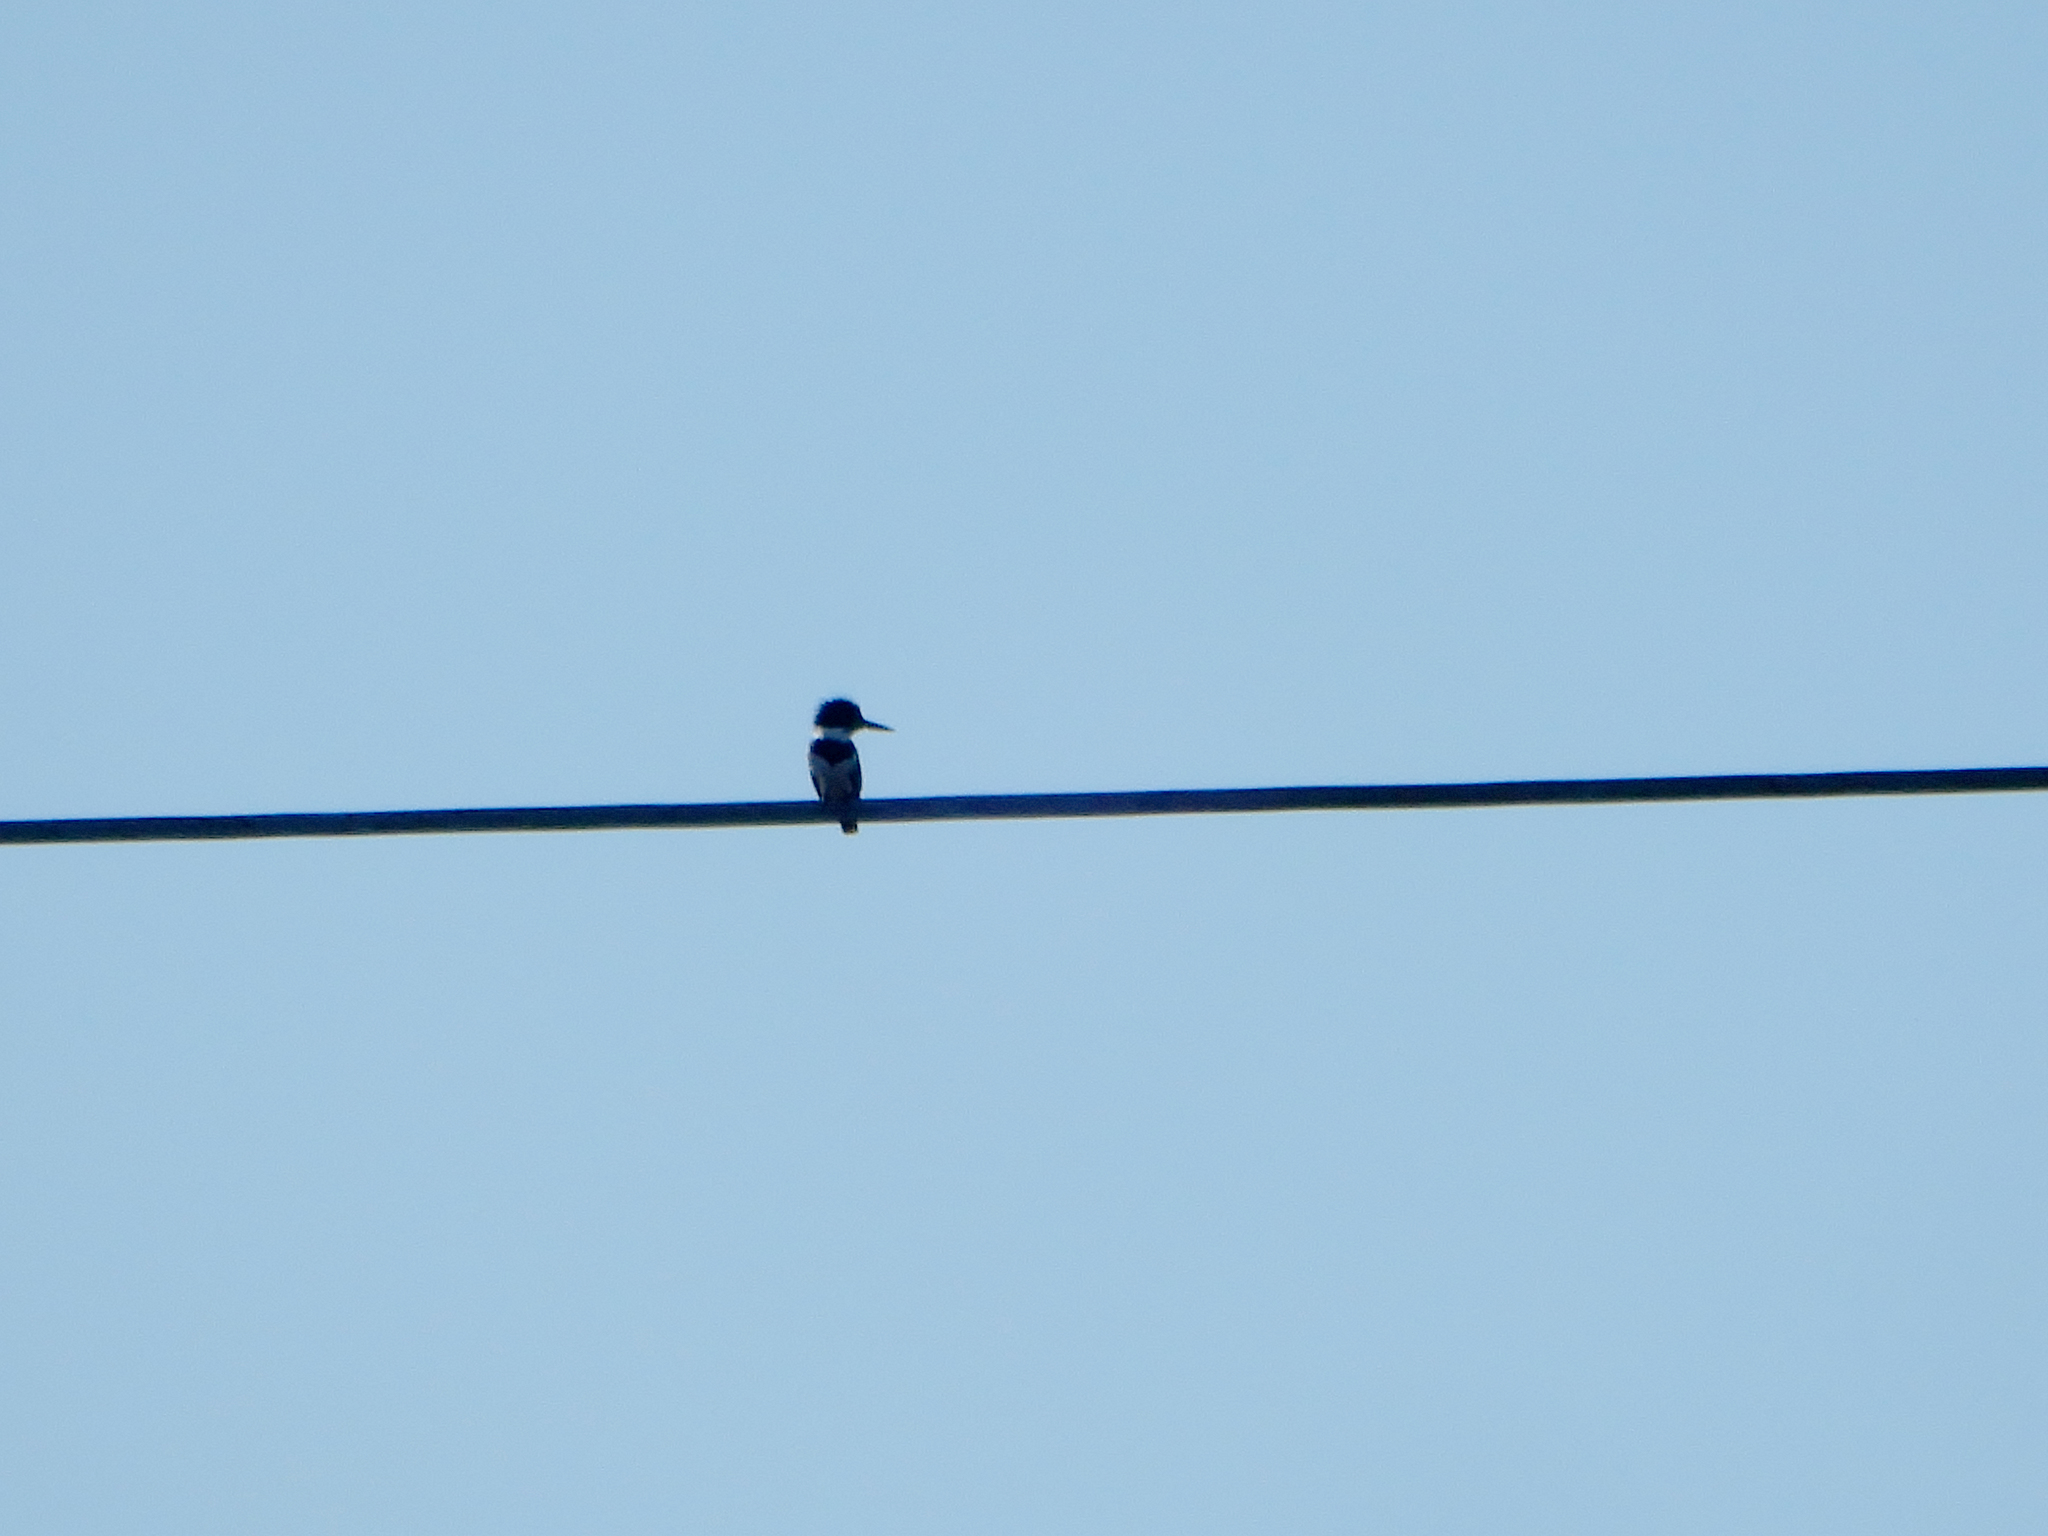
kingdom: Animalia
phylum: Chordata
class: Aves
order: Coraciiformes
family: Alcedinidae
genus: Megaceryle
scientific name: Megaceryle alcyon
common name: Belted kingfisher
